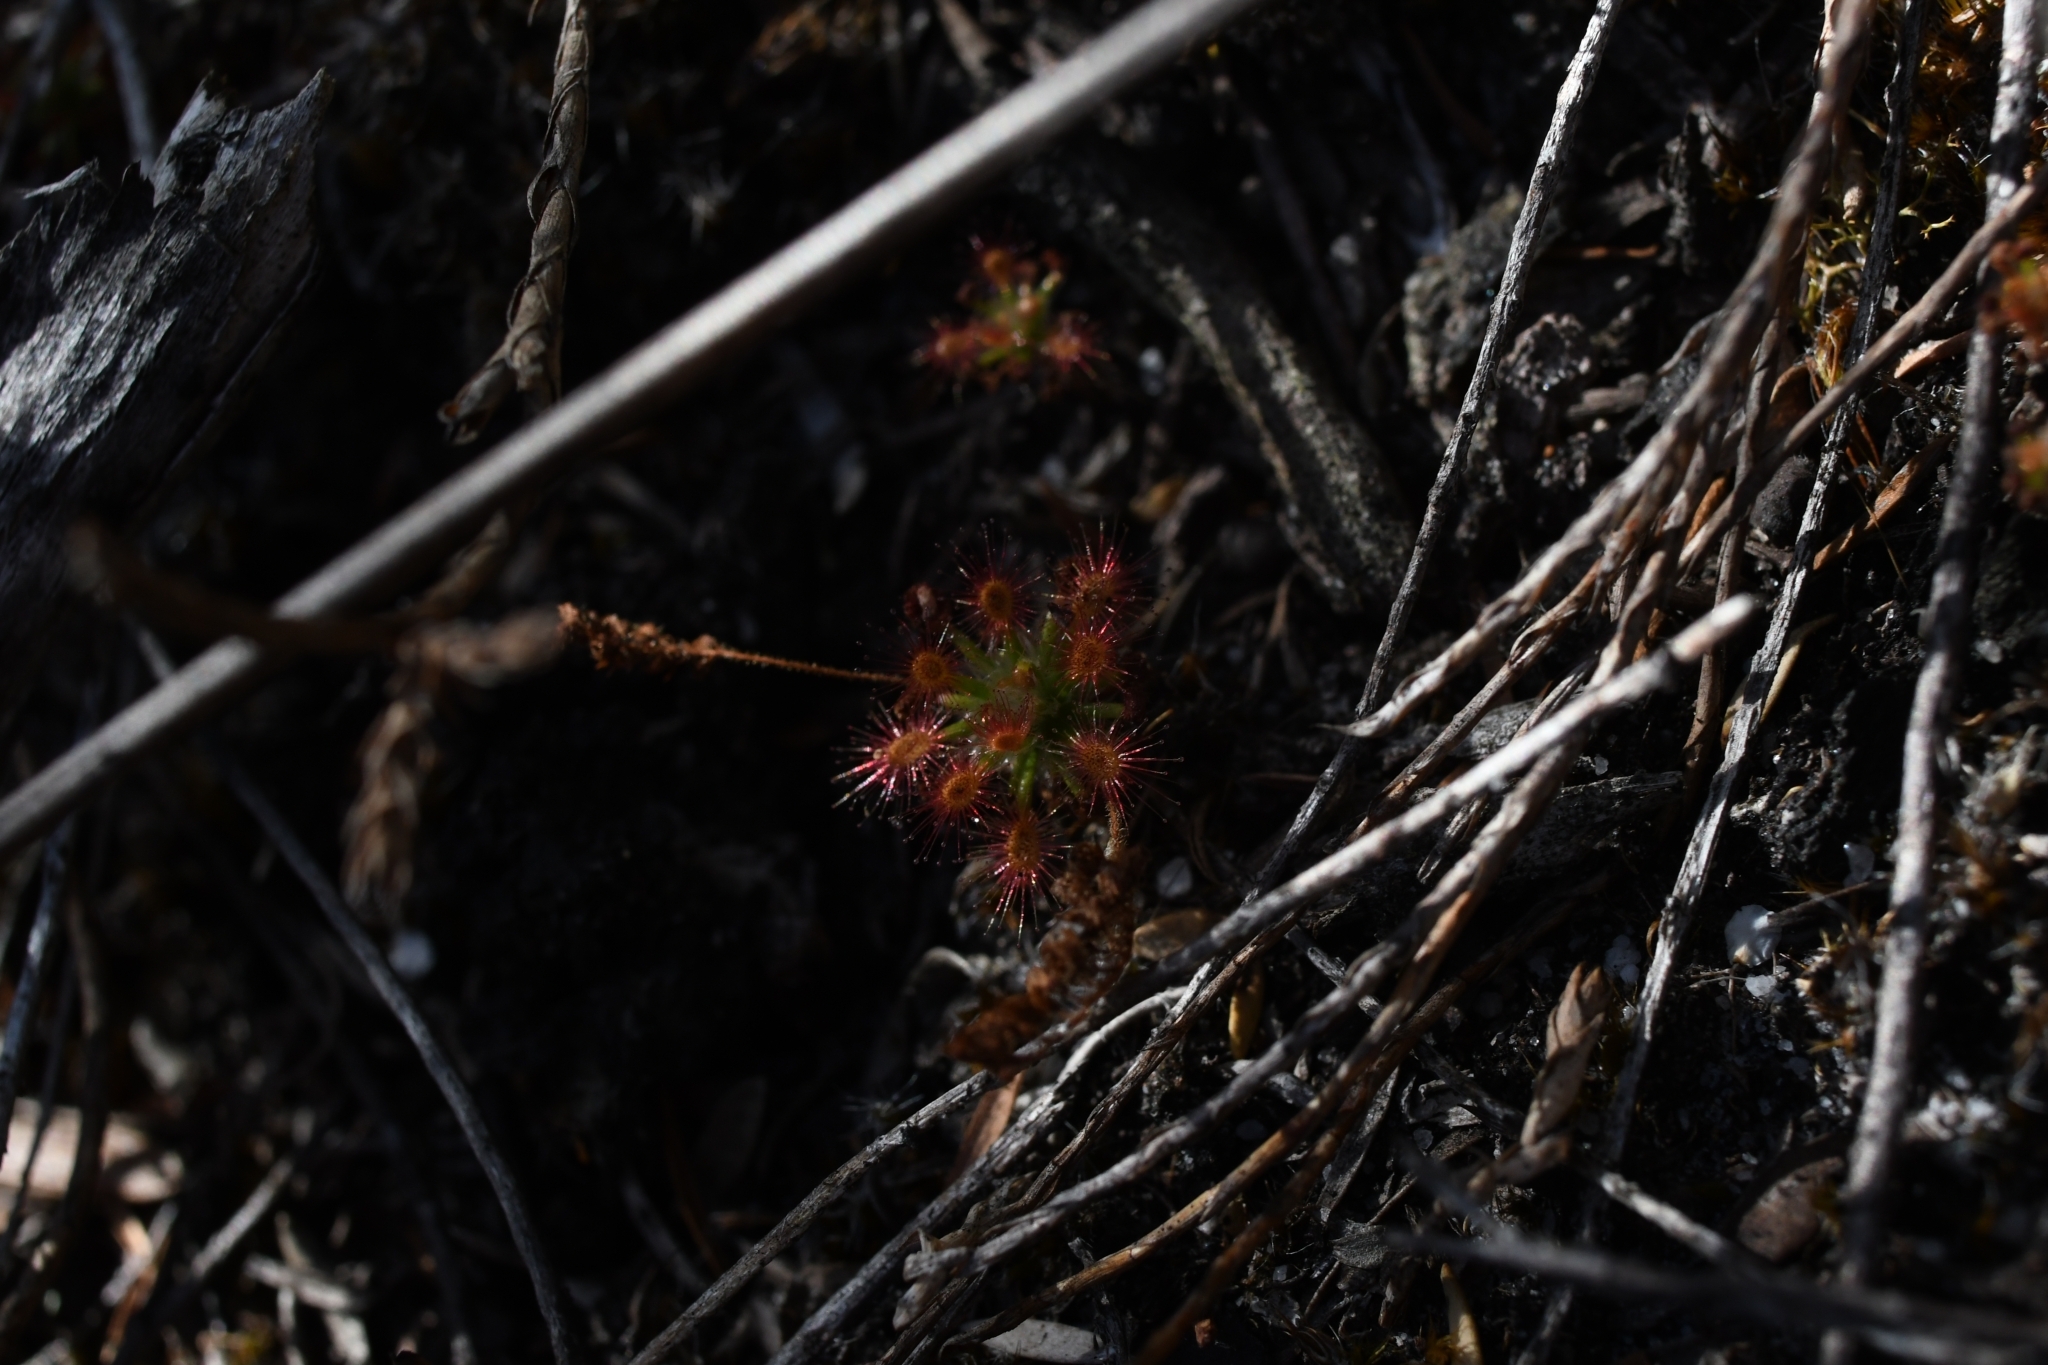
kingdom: Plantae
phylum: Tracheophyta
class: Magnoliopsida
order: Caryophyllales
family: Droseraceae
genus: Drosera
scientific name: Drosera paleacea
